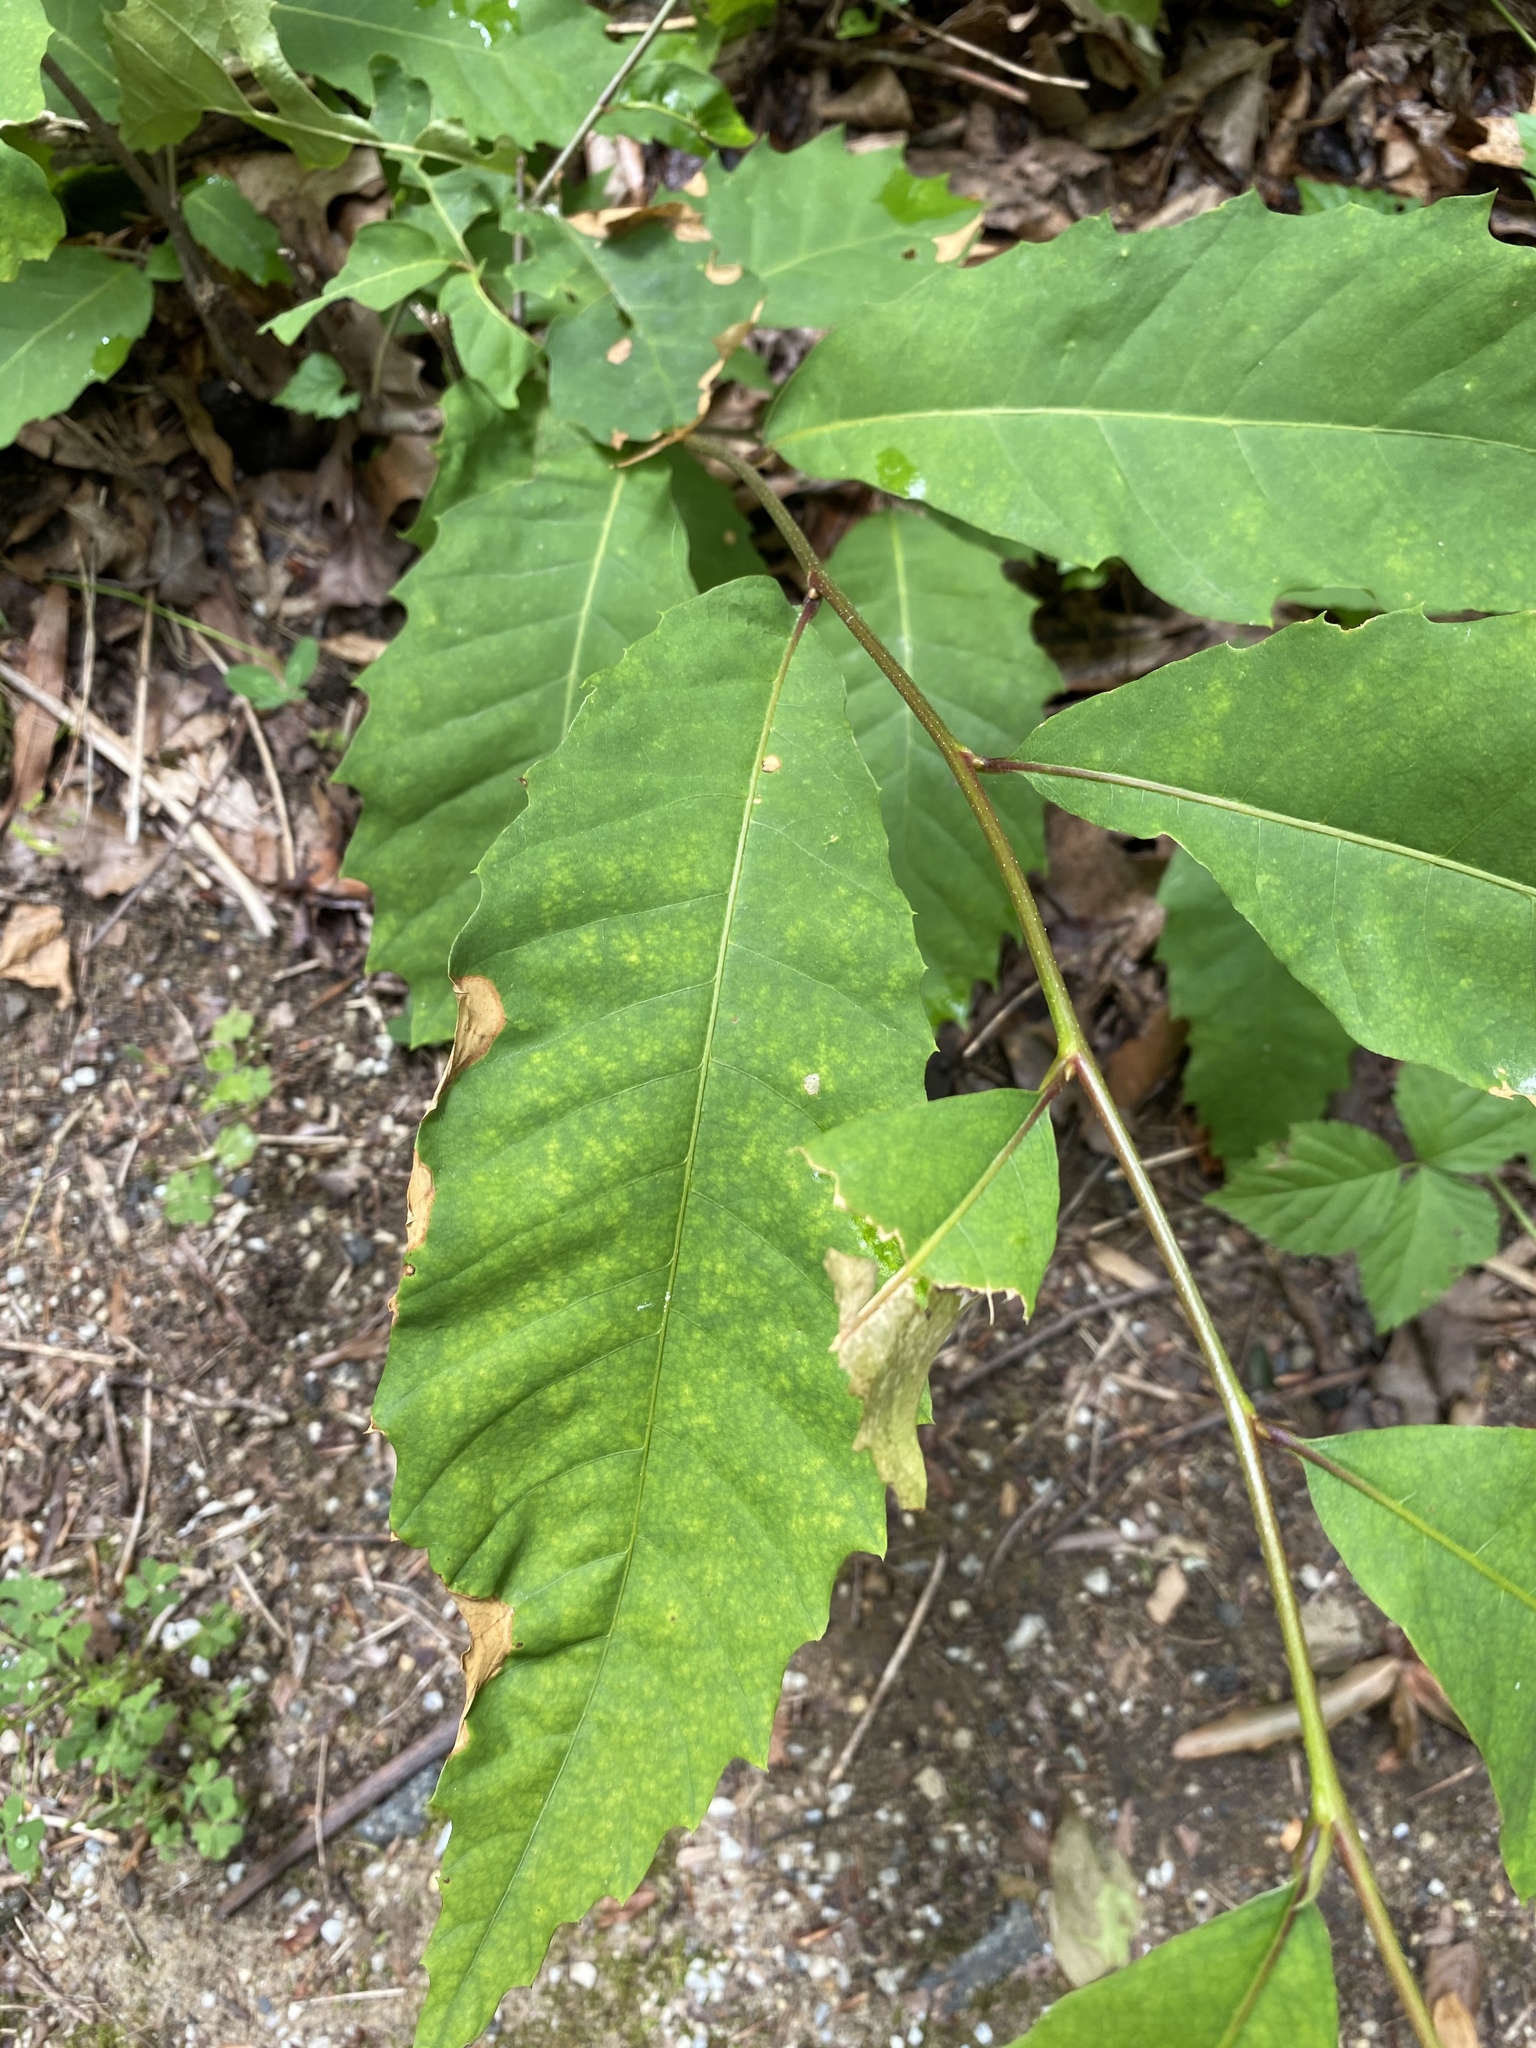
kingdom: Plantae
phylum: Tracheophyta
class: Magnoliopsida
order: Fagales
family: Fagaceae
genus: Castanea
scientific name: Castanea dentata
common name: American chestnut
